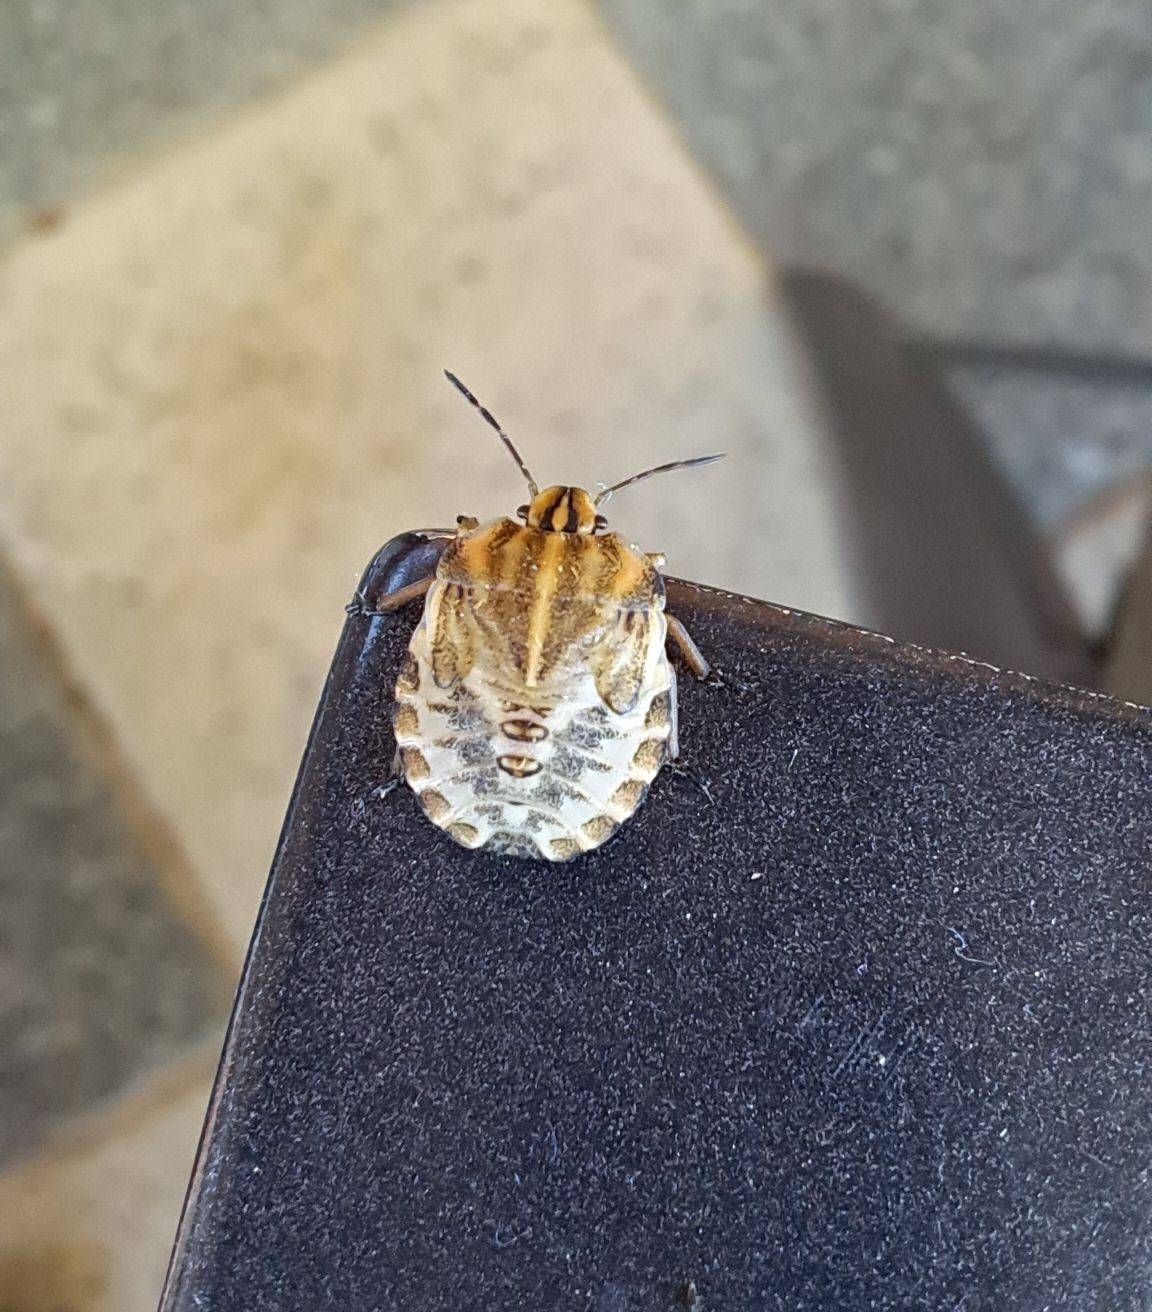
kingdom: Animalia
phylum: Arthropoda
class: Insecta
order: Hemiptera
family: Pentatomidae
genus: Graphosoma
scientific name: Graphosoma italicum
